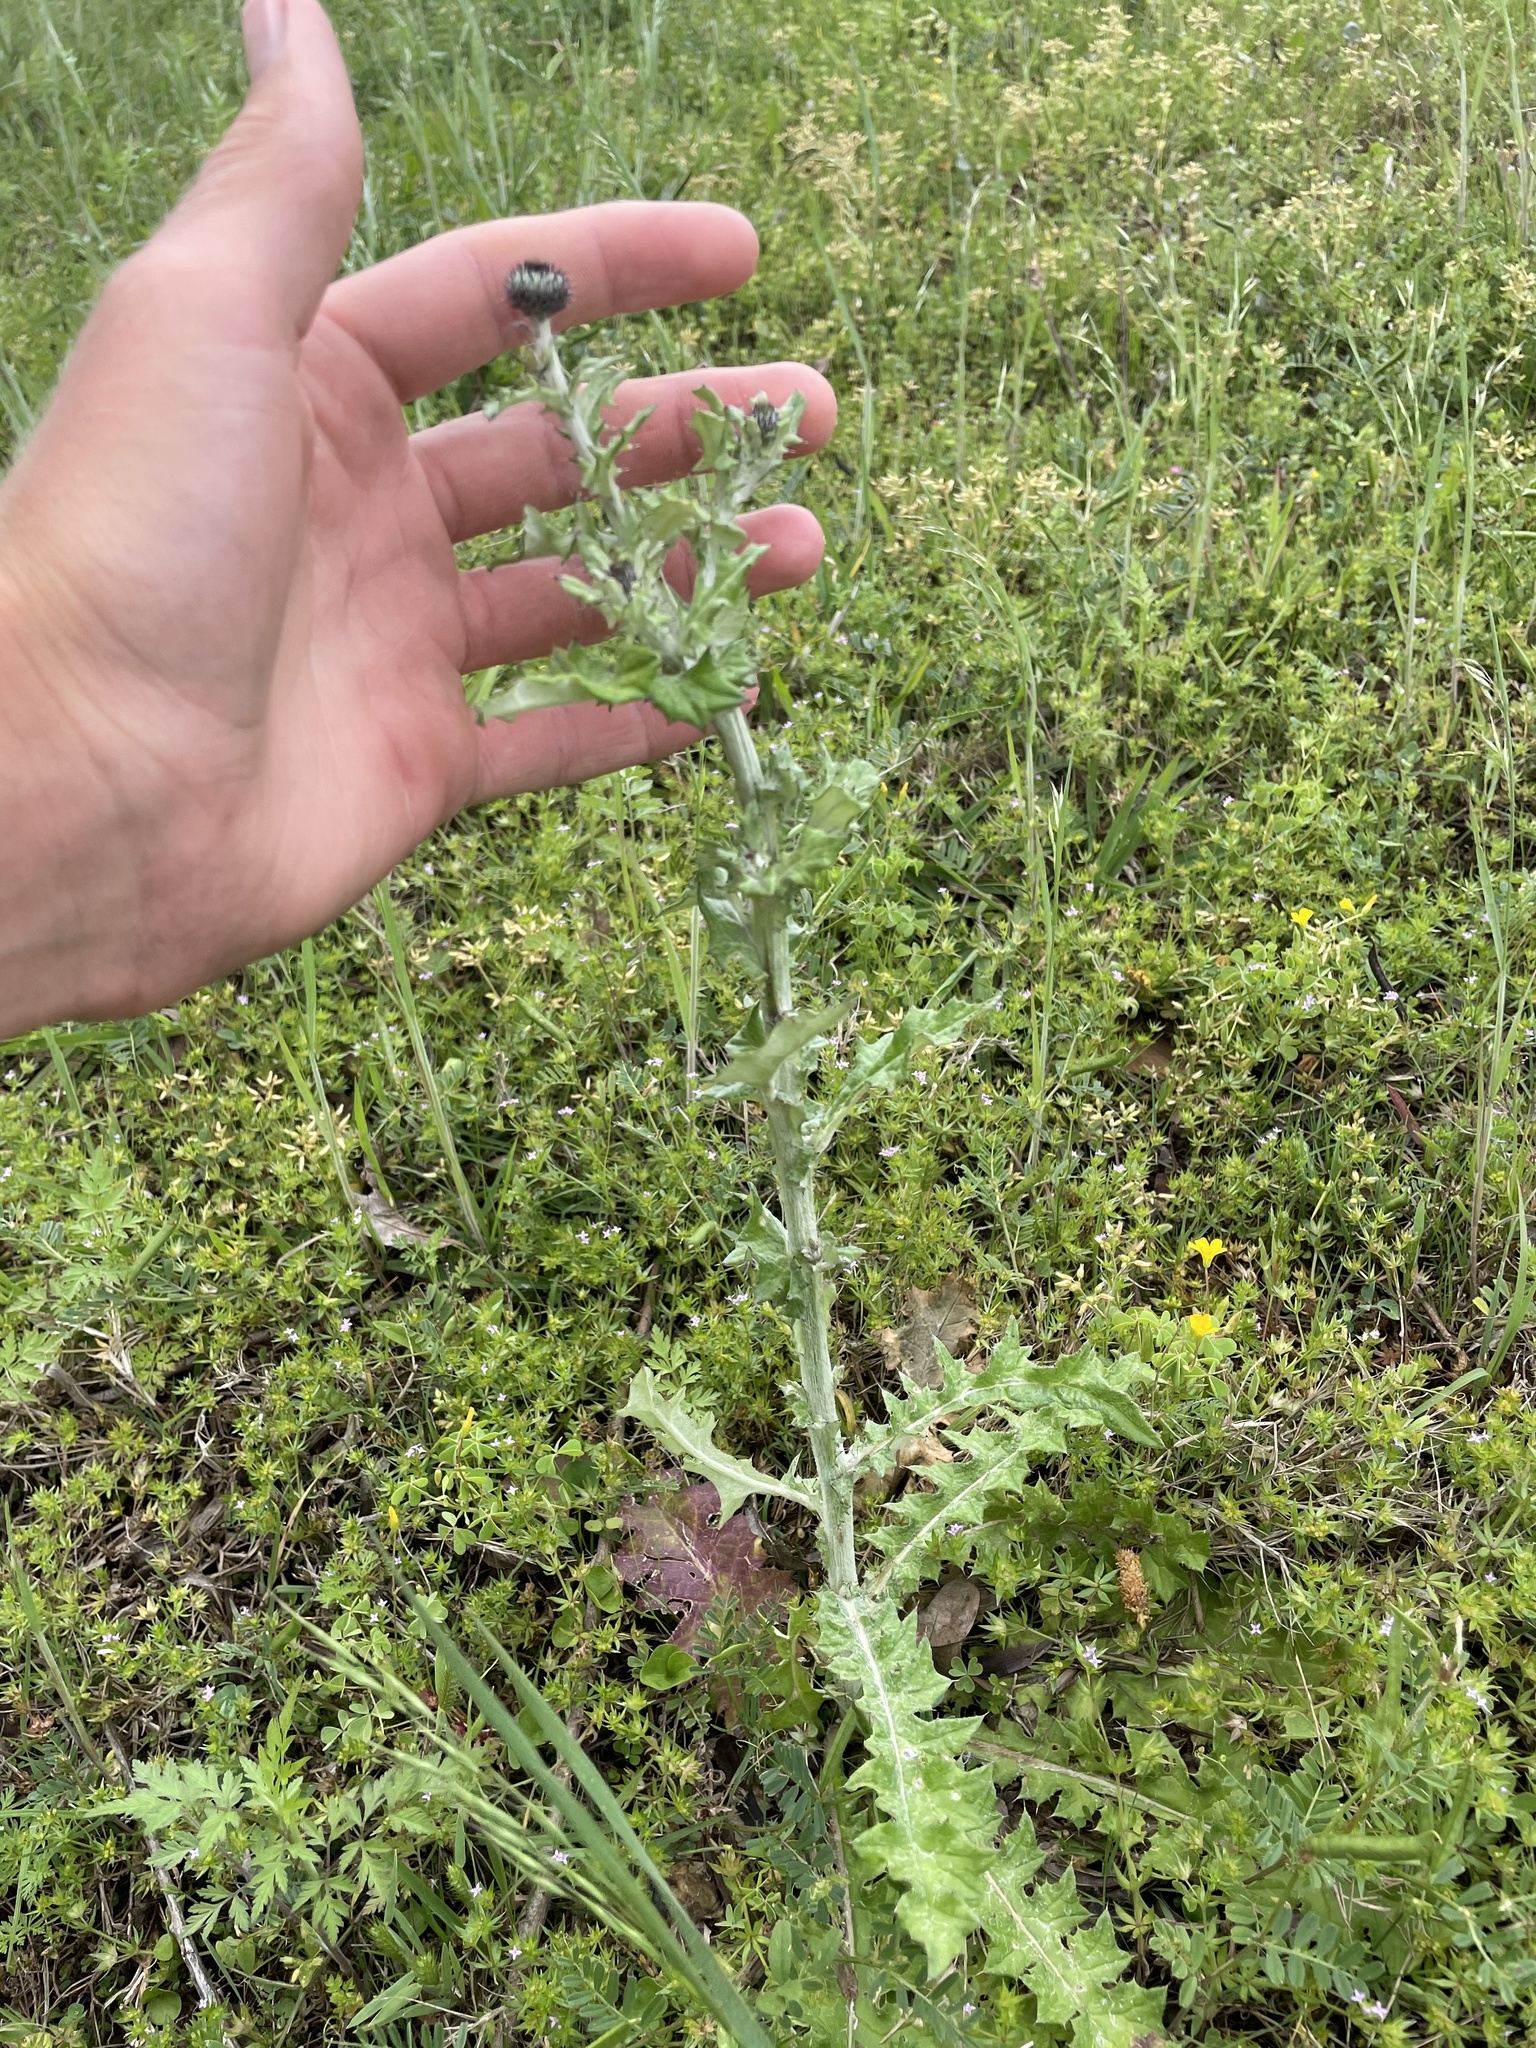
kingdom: Plantae
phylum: Tracheophyta
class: Magnoliopsida
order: Asterales
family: Asteraceae
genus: Cirsium
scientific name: Cirsium texanum
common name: Texas purple thistle
